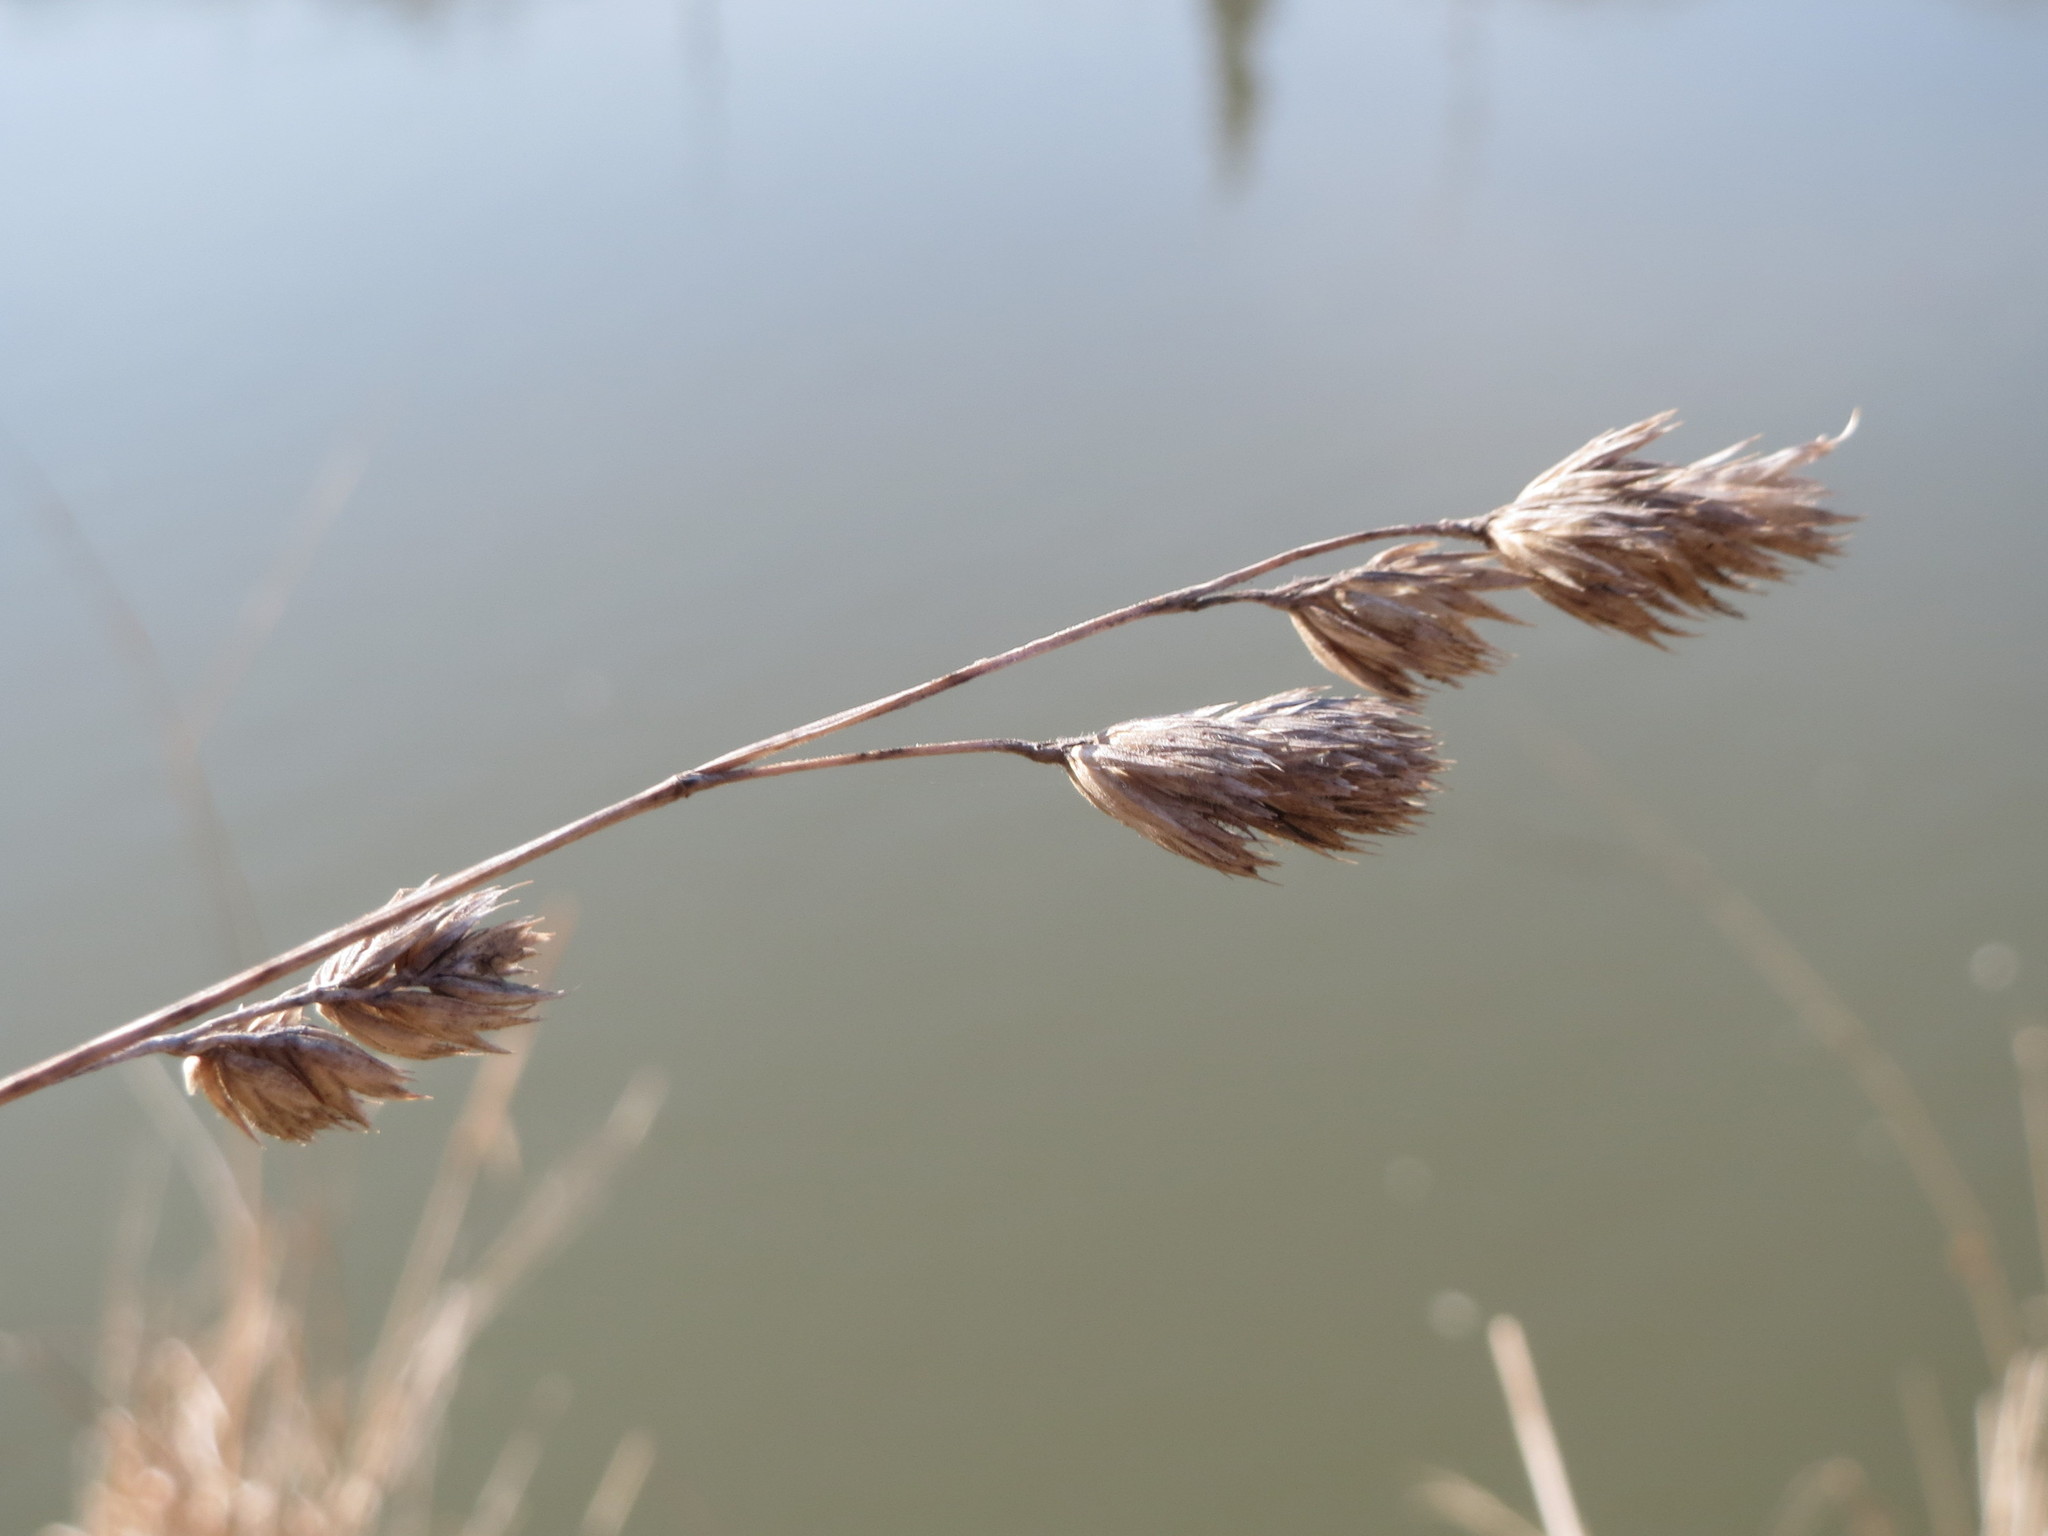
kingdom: Plantae
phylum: Tracheophyta
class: Liliopsida
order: Poales
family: Poaceae
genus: Dactylis
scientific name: Dactylis glomerata
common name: Orchardgrass
